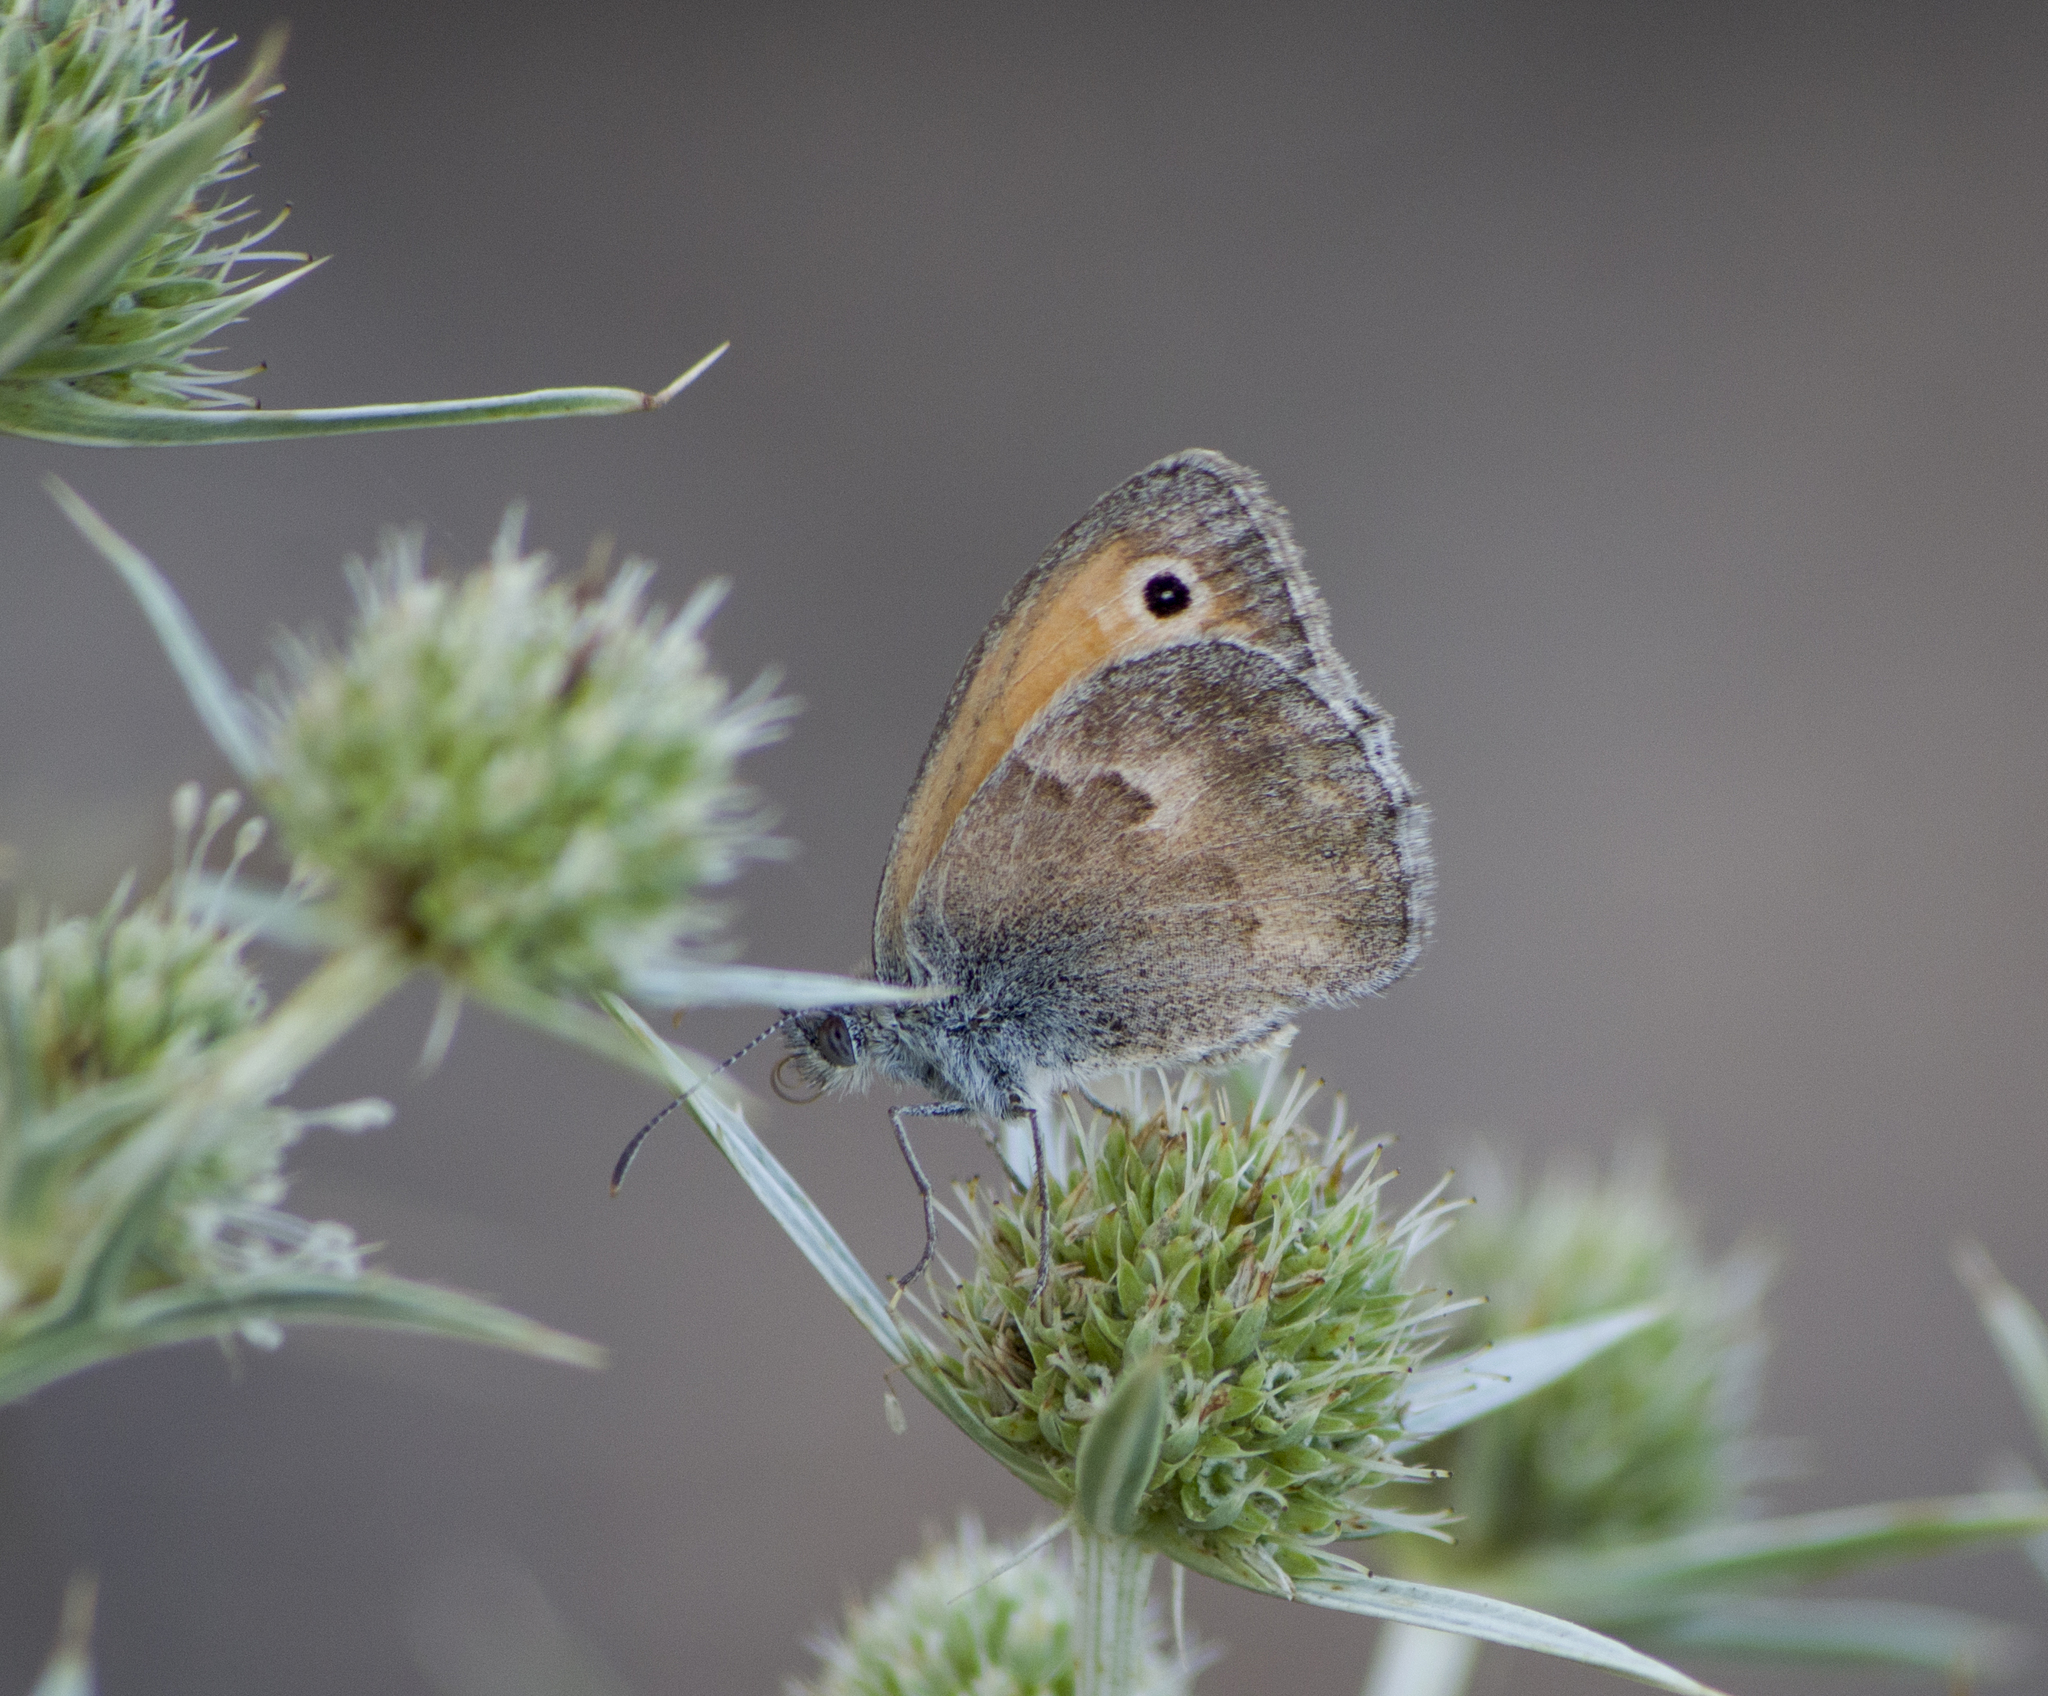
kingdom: Animalia
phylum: Arthropoda
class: Insecta
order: Lepidoptera
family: Nymphalidae
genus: Coenonympha
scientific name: Coenonympha pamphilus
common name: Small heath
